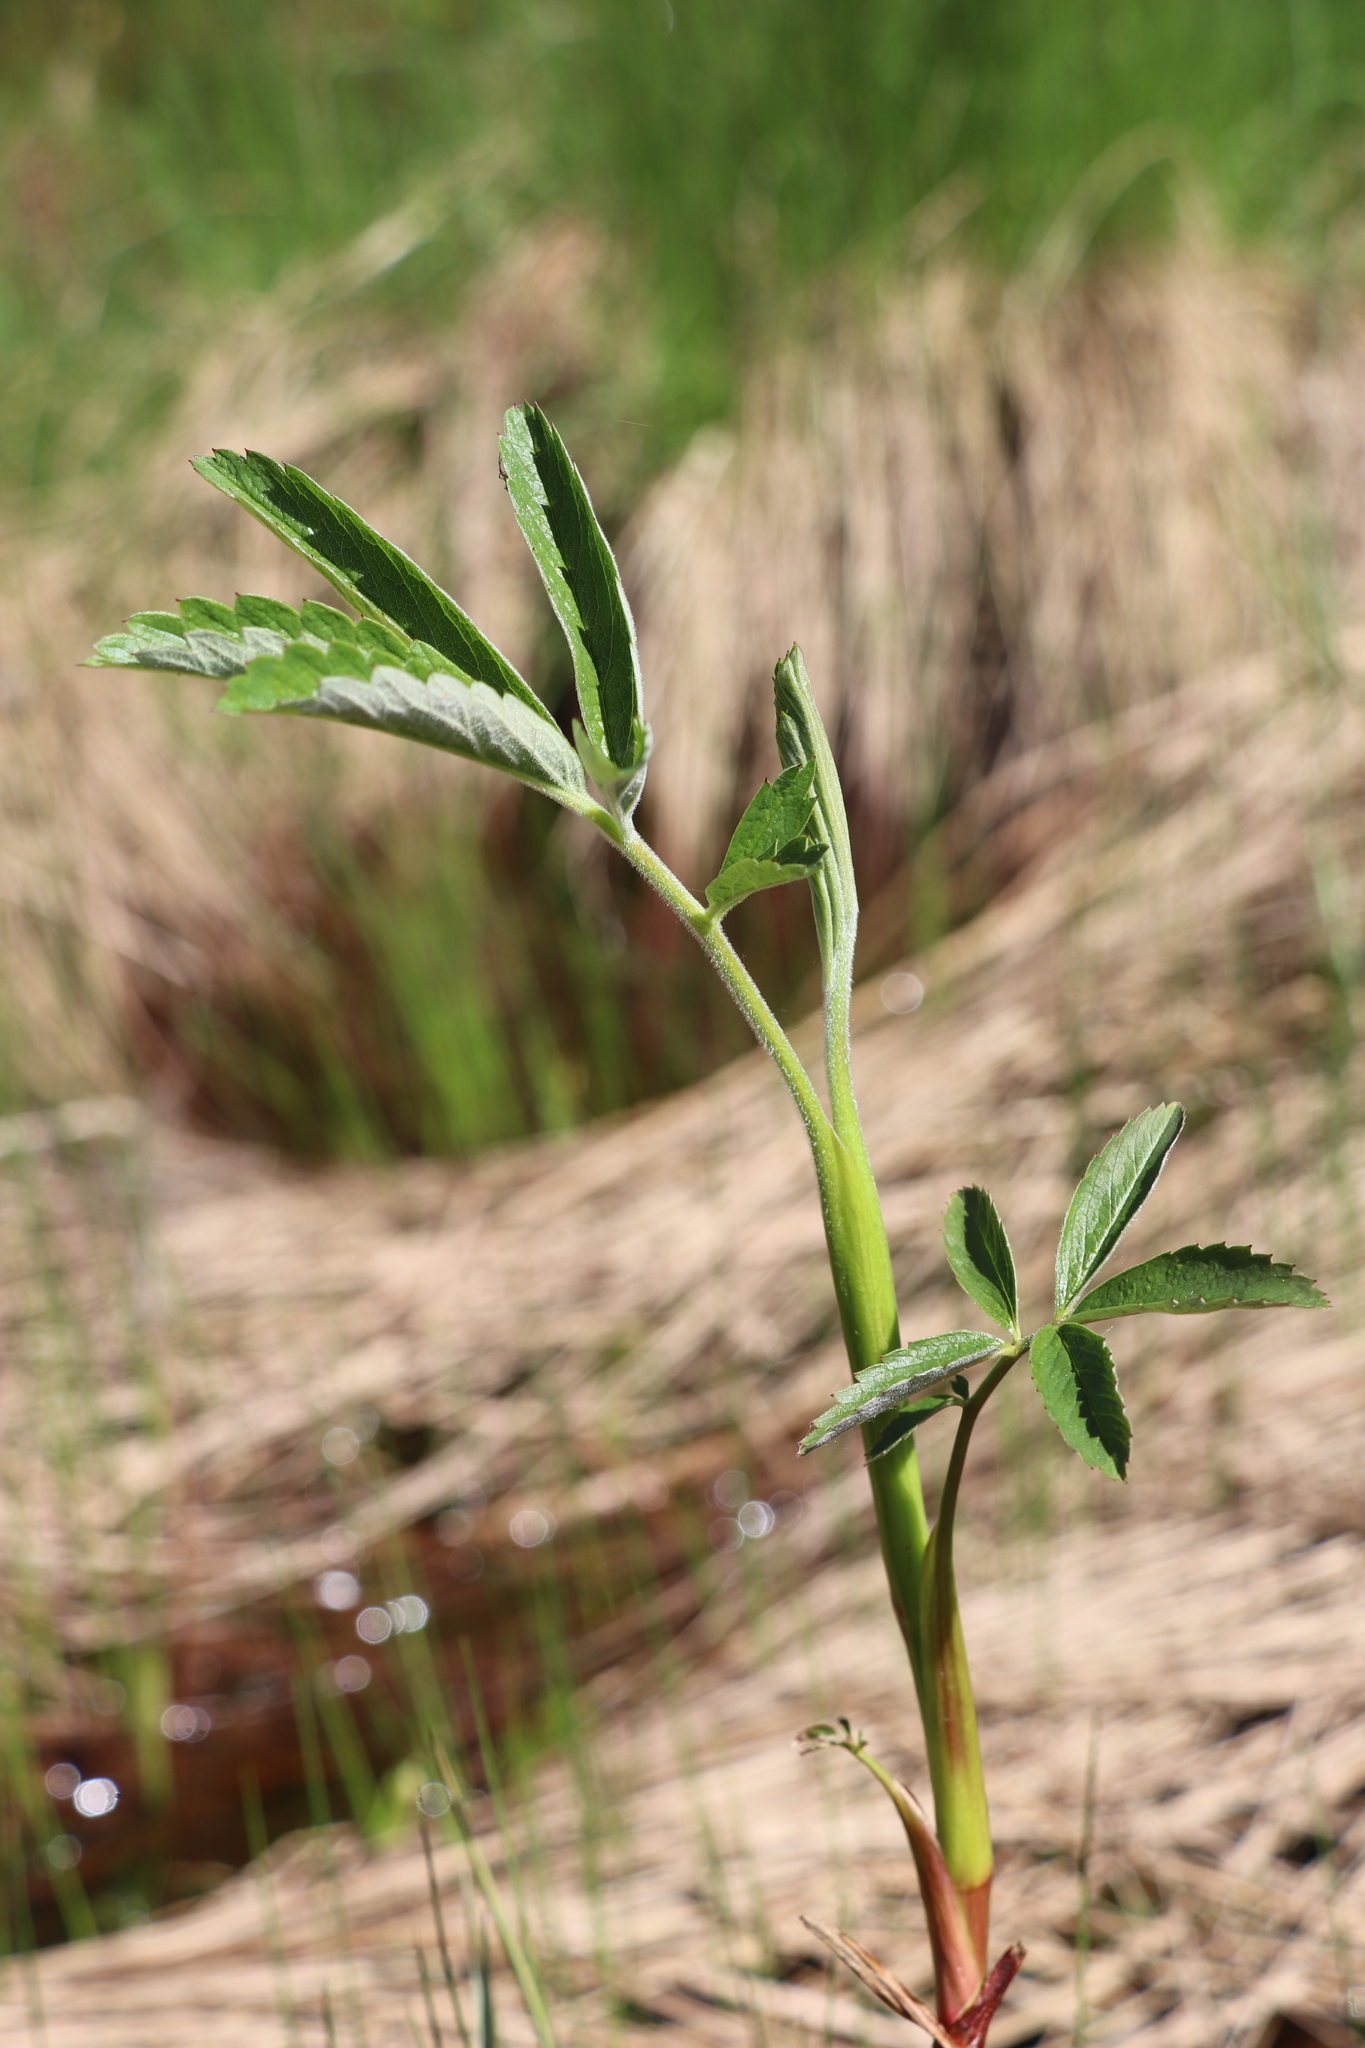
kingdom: Plantae
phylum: Tracheophyta
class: Magnoliopsida
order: Rosales
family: Rosaceae
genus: Comarum
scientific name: Comarum palustre
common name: Marsh cinquefoil
